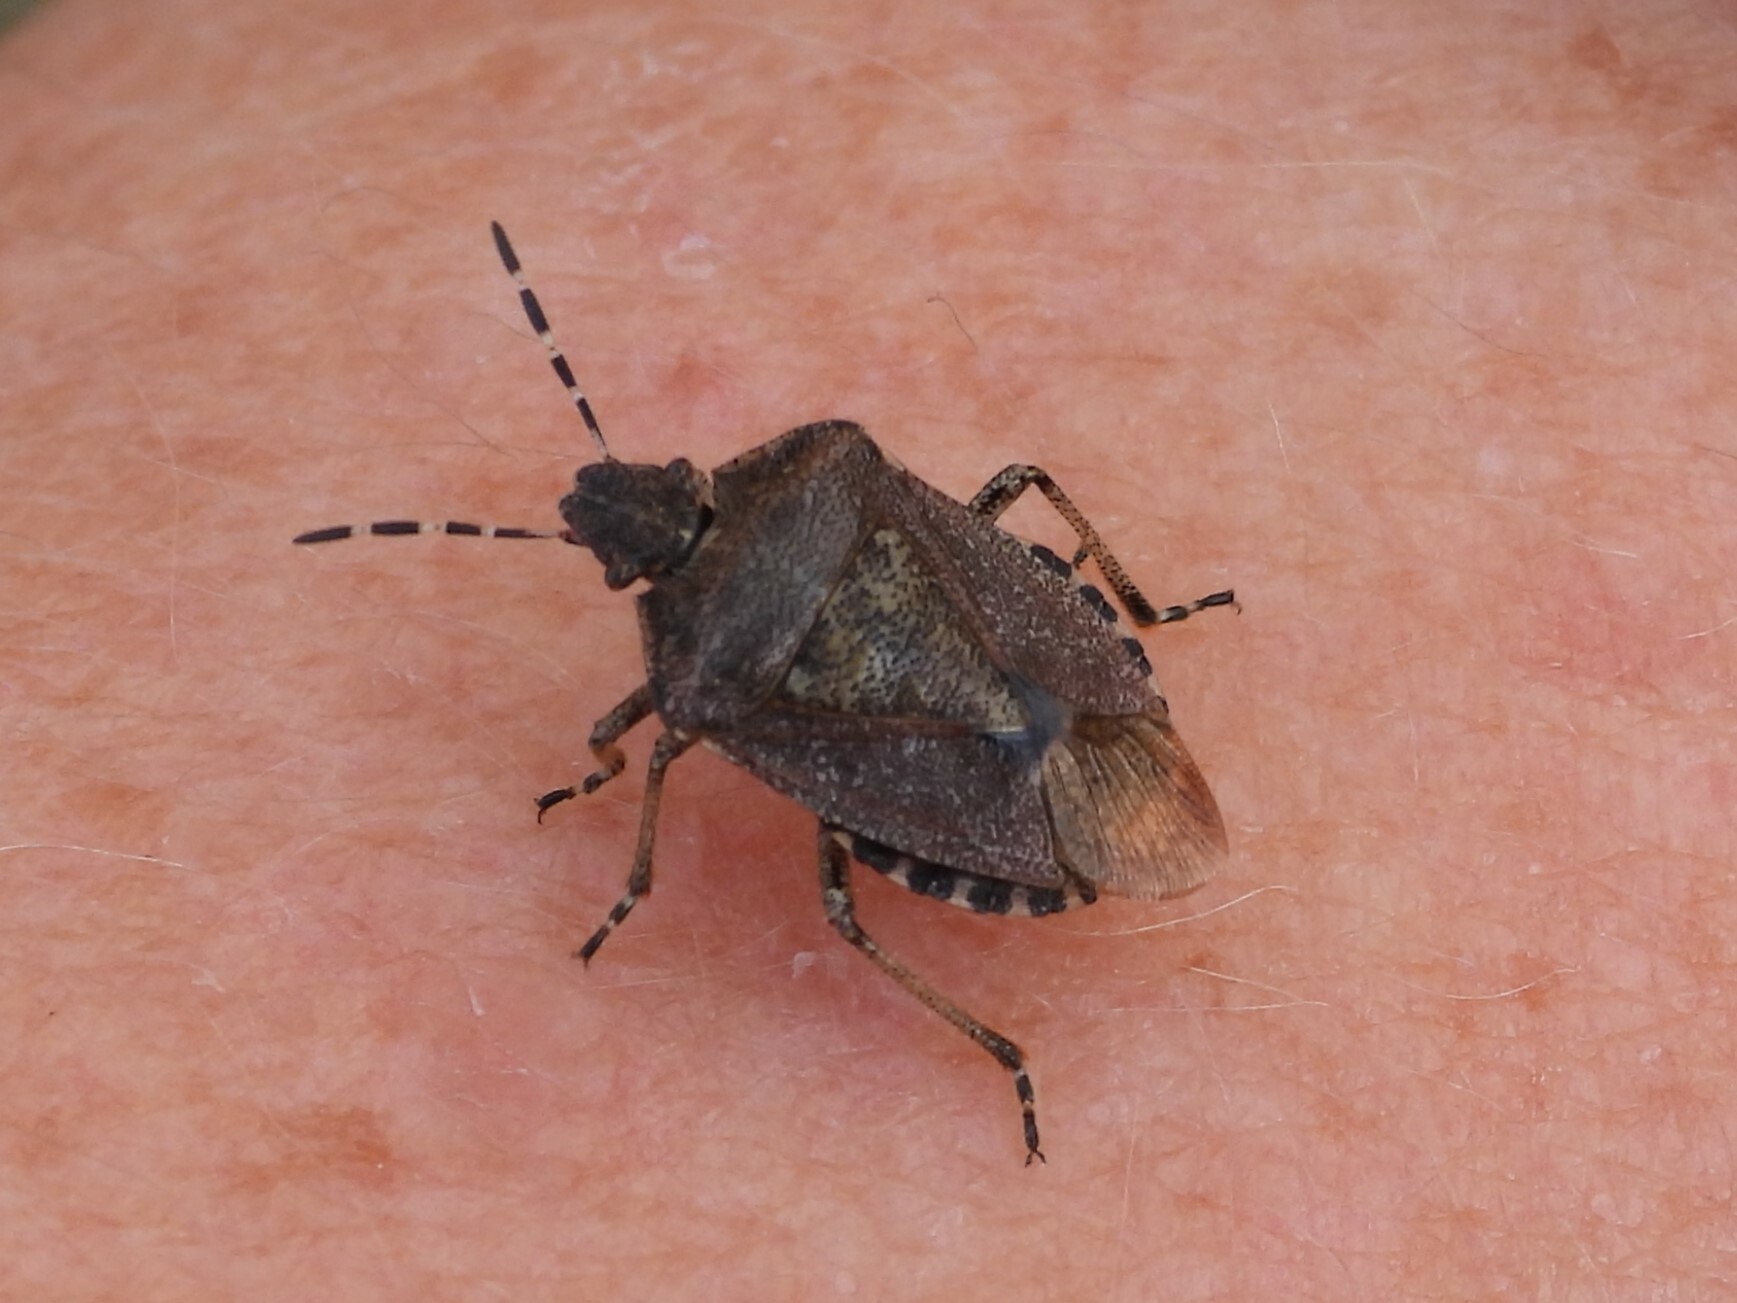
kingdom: Animalia
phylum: Arthropoda
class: Insecta
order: Hemiptera
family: Pentatomidae
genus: Dolycoris
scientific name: Dolycoris baccarum
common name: Sloe bug
